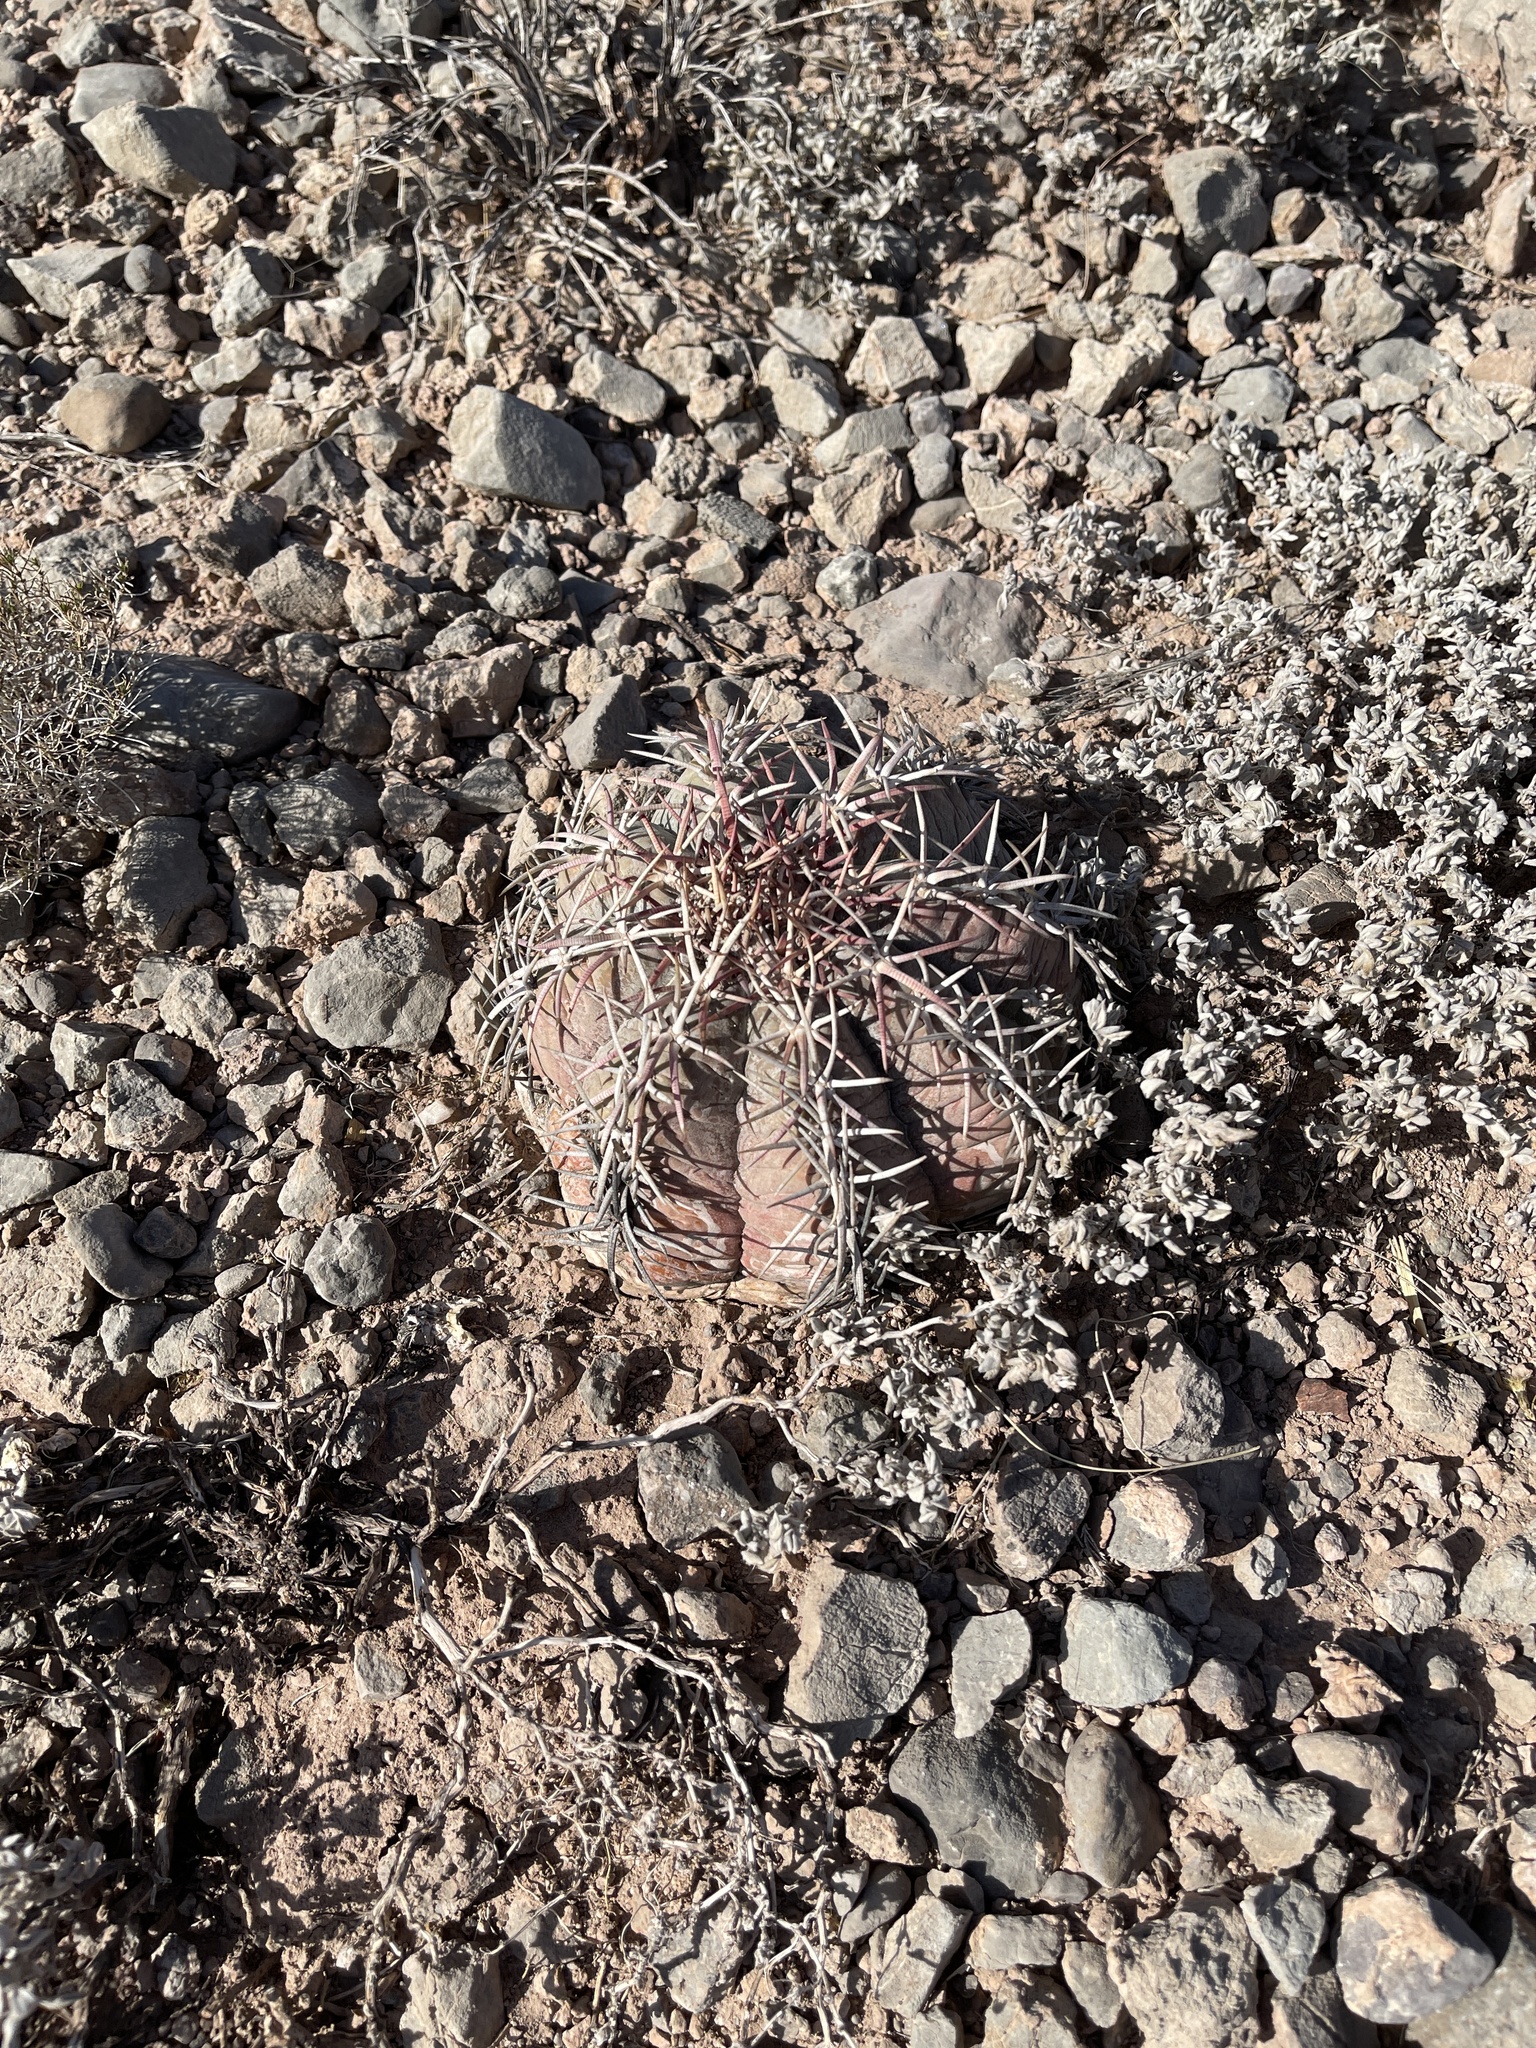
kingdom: Plantae
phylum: Tracheophyta
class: Magnoliopsida
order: Caryophyllales
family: Cactaceae
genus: Echinocactus
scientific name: Echinocactus horizonthalonius
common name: Devilshead
